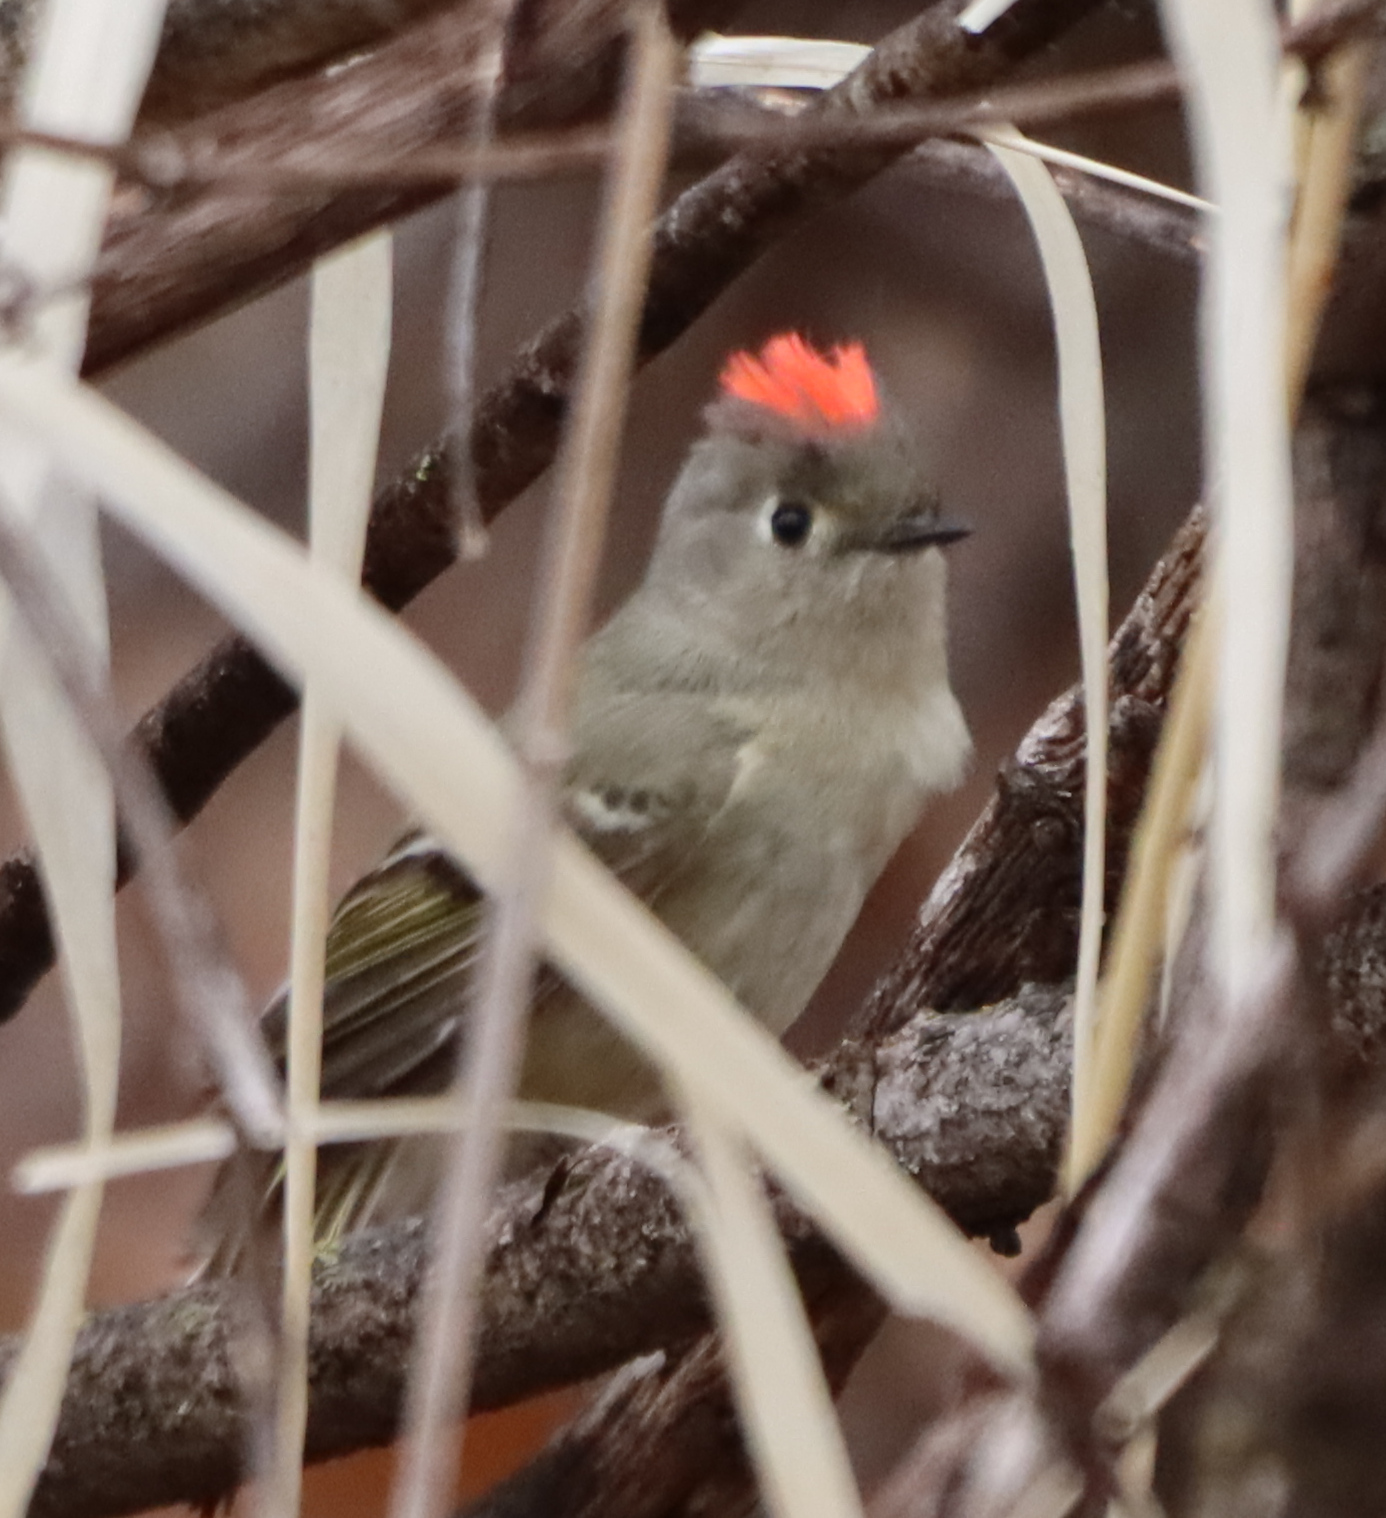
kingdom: Animalia
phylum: Chordata
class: Aves
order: Passeriformes
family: Regulidae
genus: Regulus
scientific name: Regulus calendula
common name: Ruby-crowned kinglet
